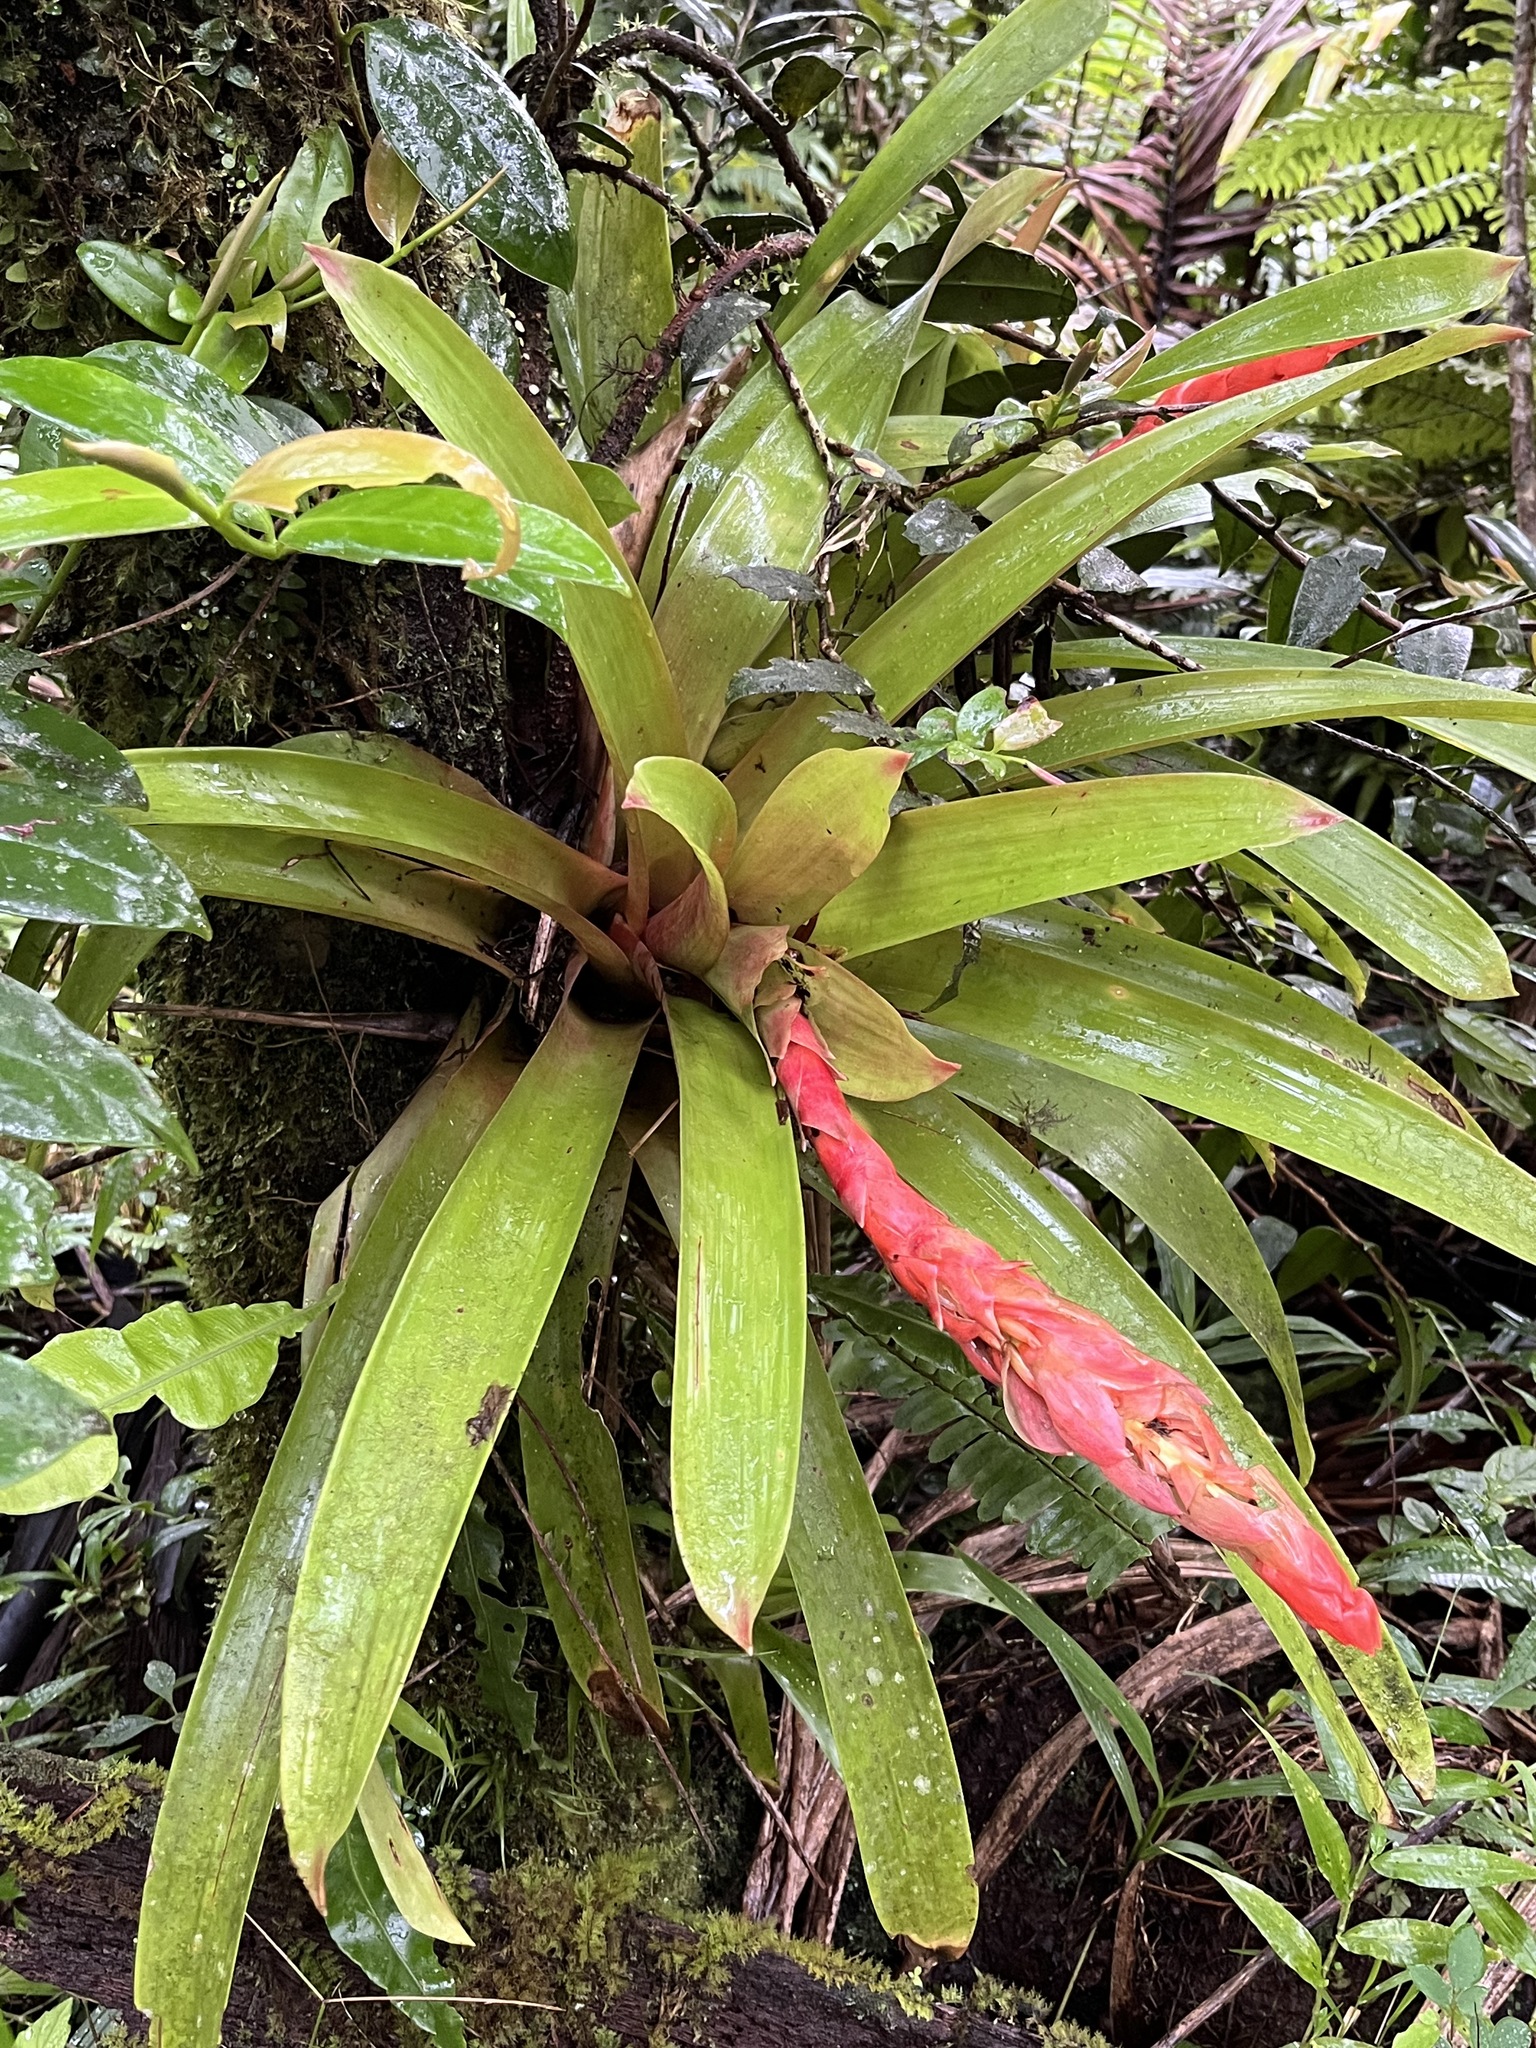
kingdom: Plantae
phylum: Tracheophyta
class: Liliopsida
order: Poales
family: Bromeliaceae
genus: Guzmania
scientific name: Guzmania berteroniana
